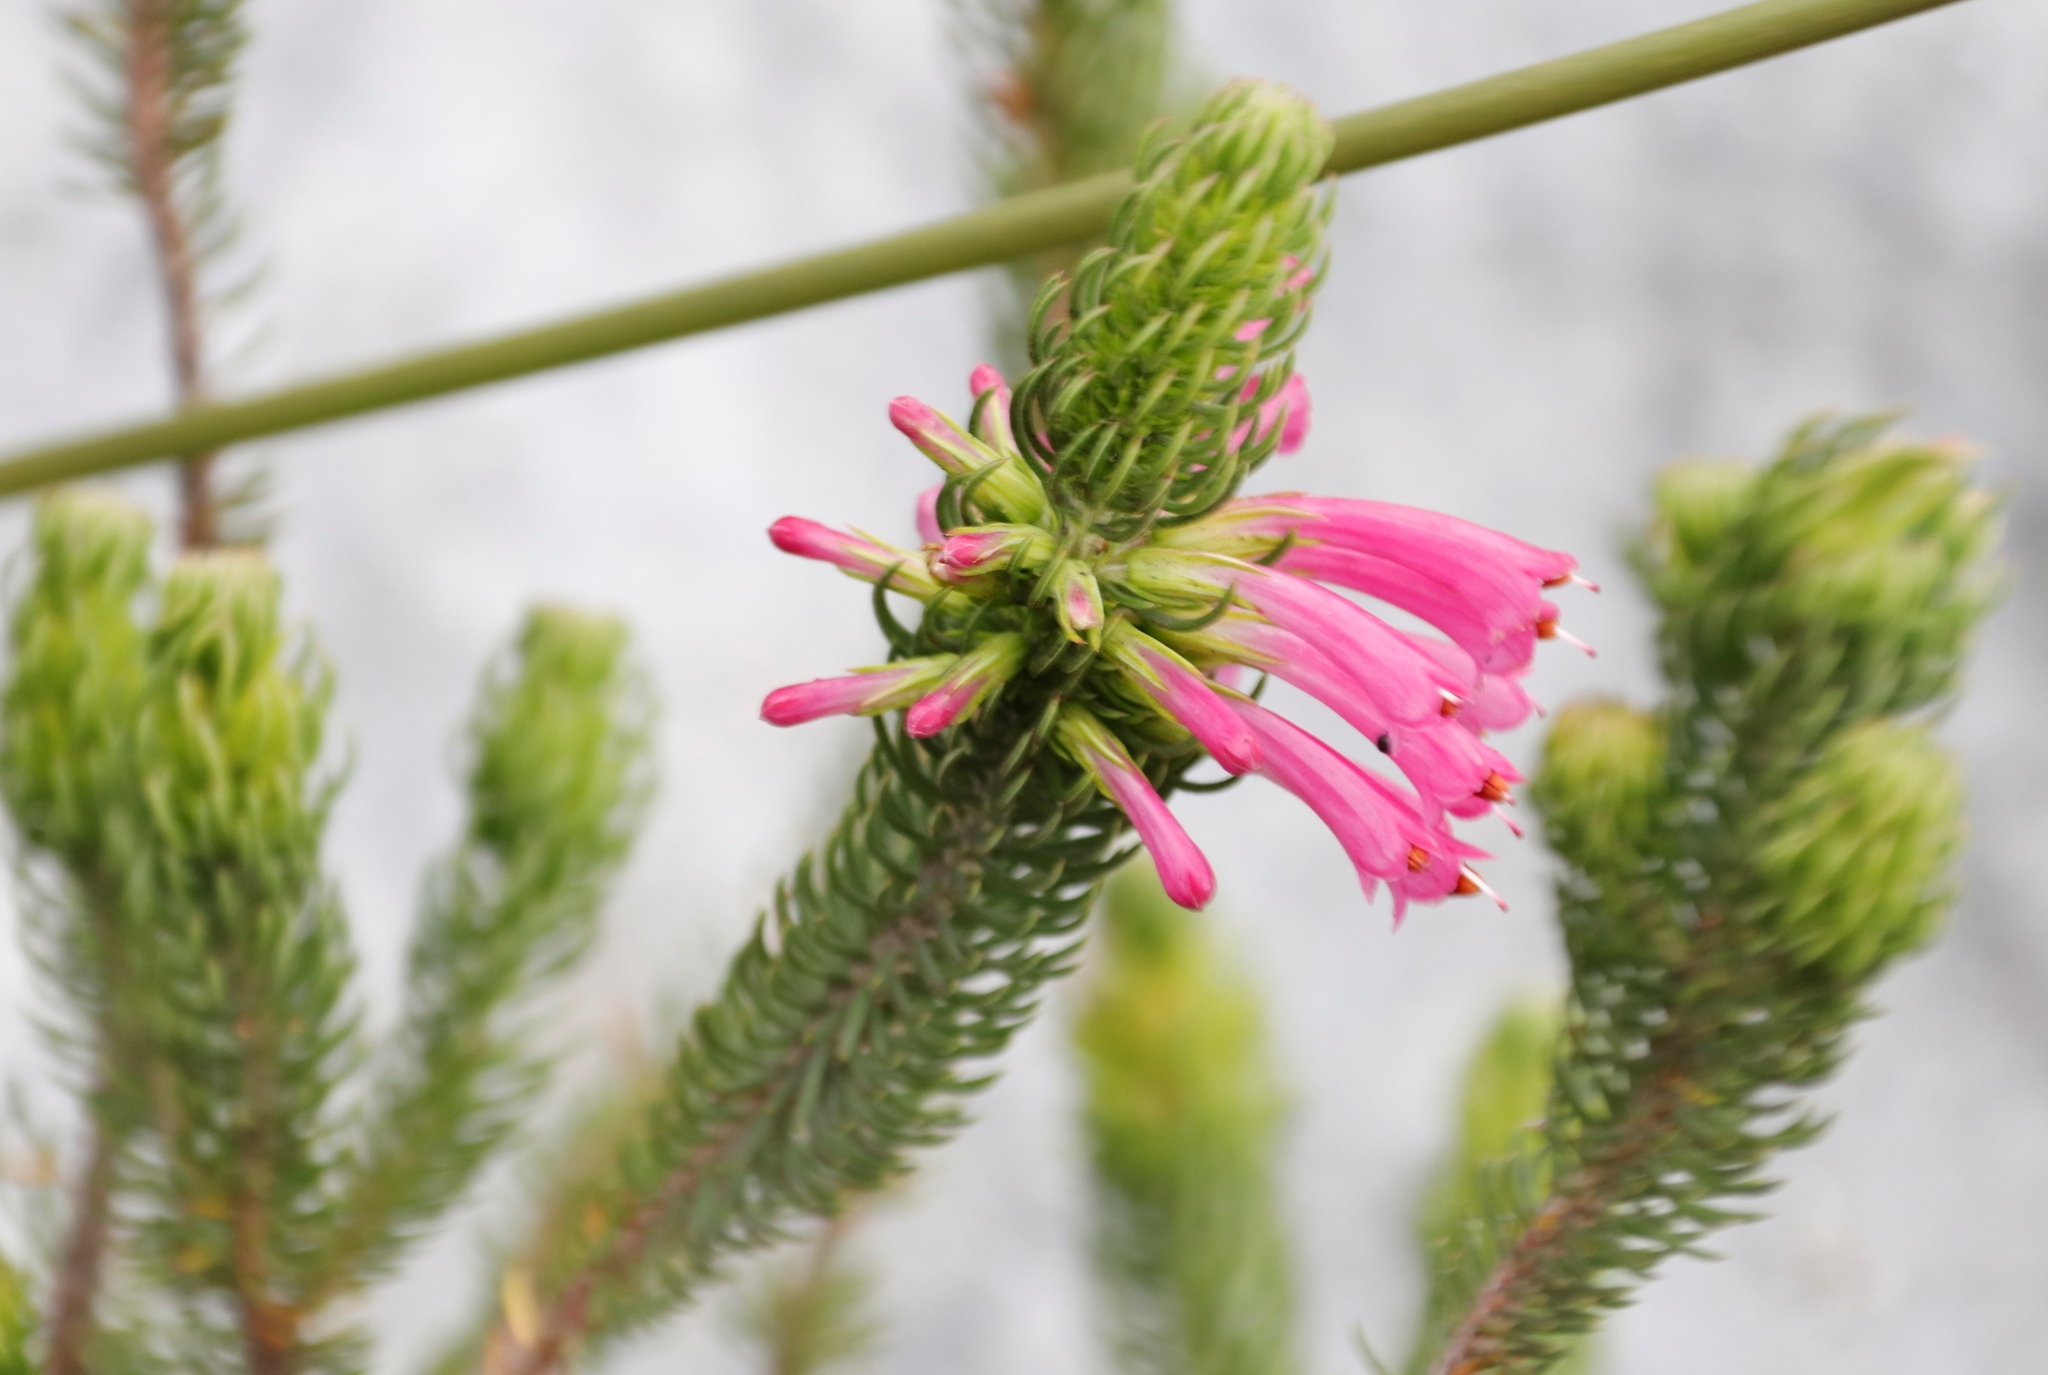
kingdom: Plantae
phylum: Tracheophyta
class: Magnoliopsida
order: Ericales
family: Ericaceae
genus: Erica
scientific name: Erica abietina
